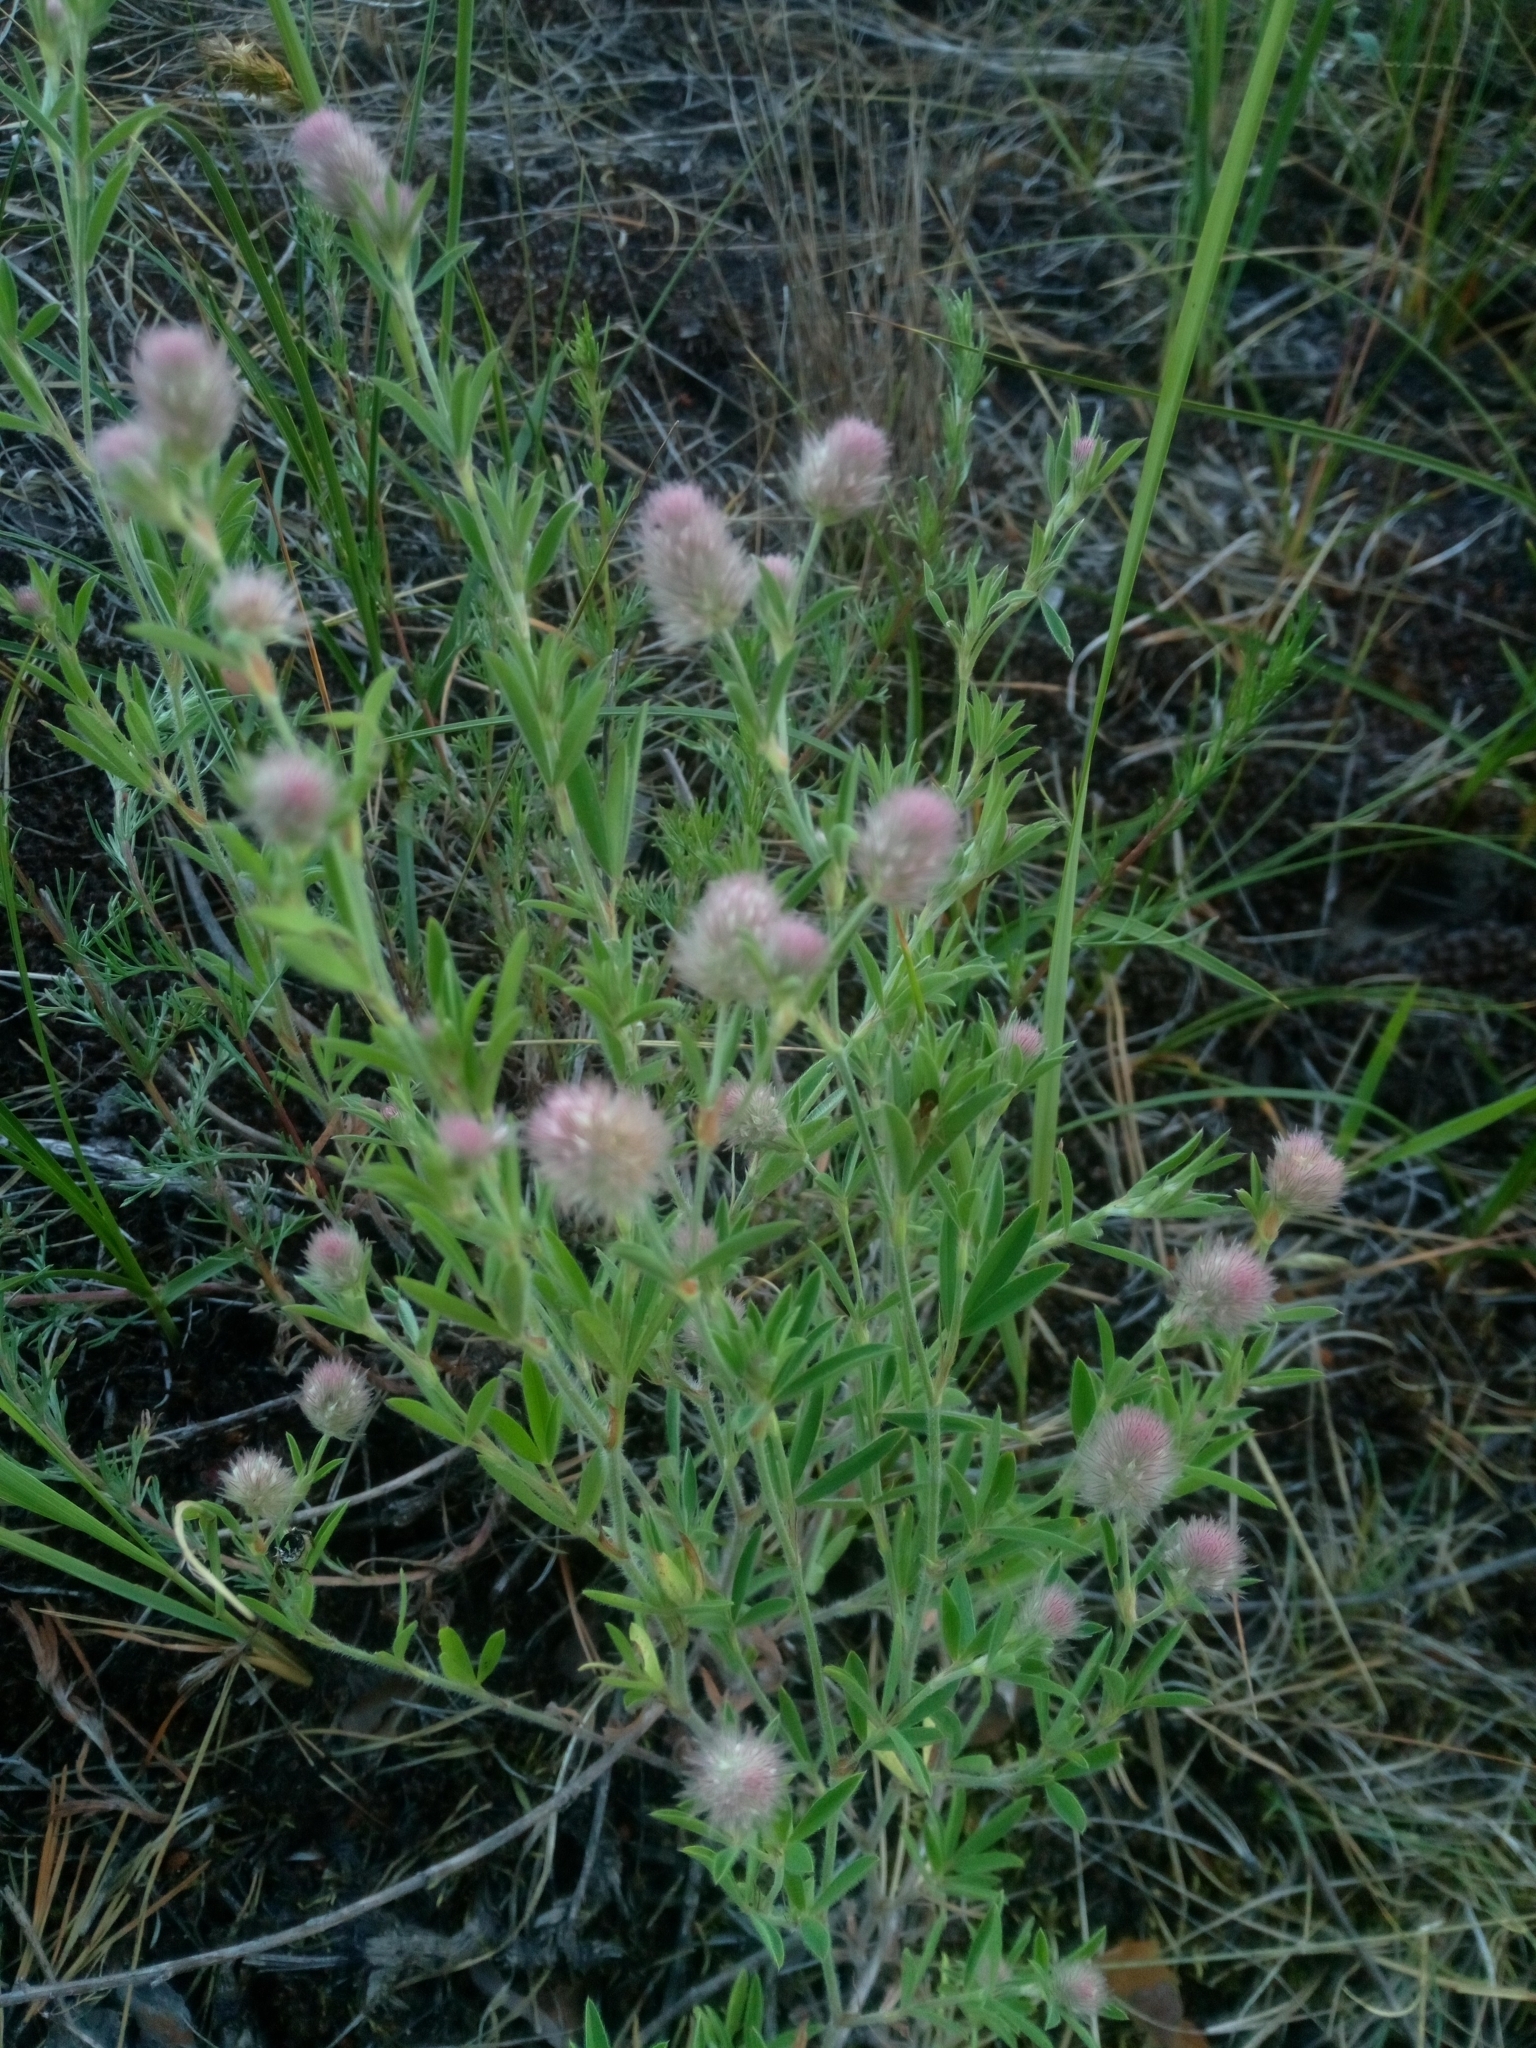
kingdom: Plantae
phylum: Tracheophyta
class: Magnoliopsida
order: Fabales
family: Fabaceae
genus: Trifolium
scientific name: Trifolium arvense
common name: Hare's-foot clover
